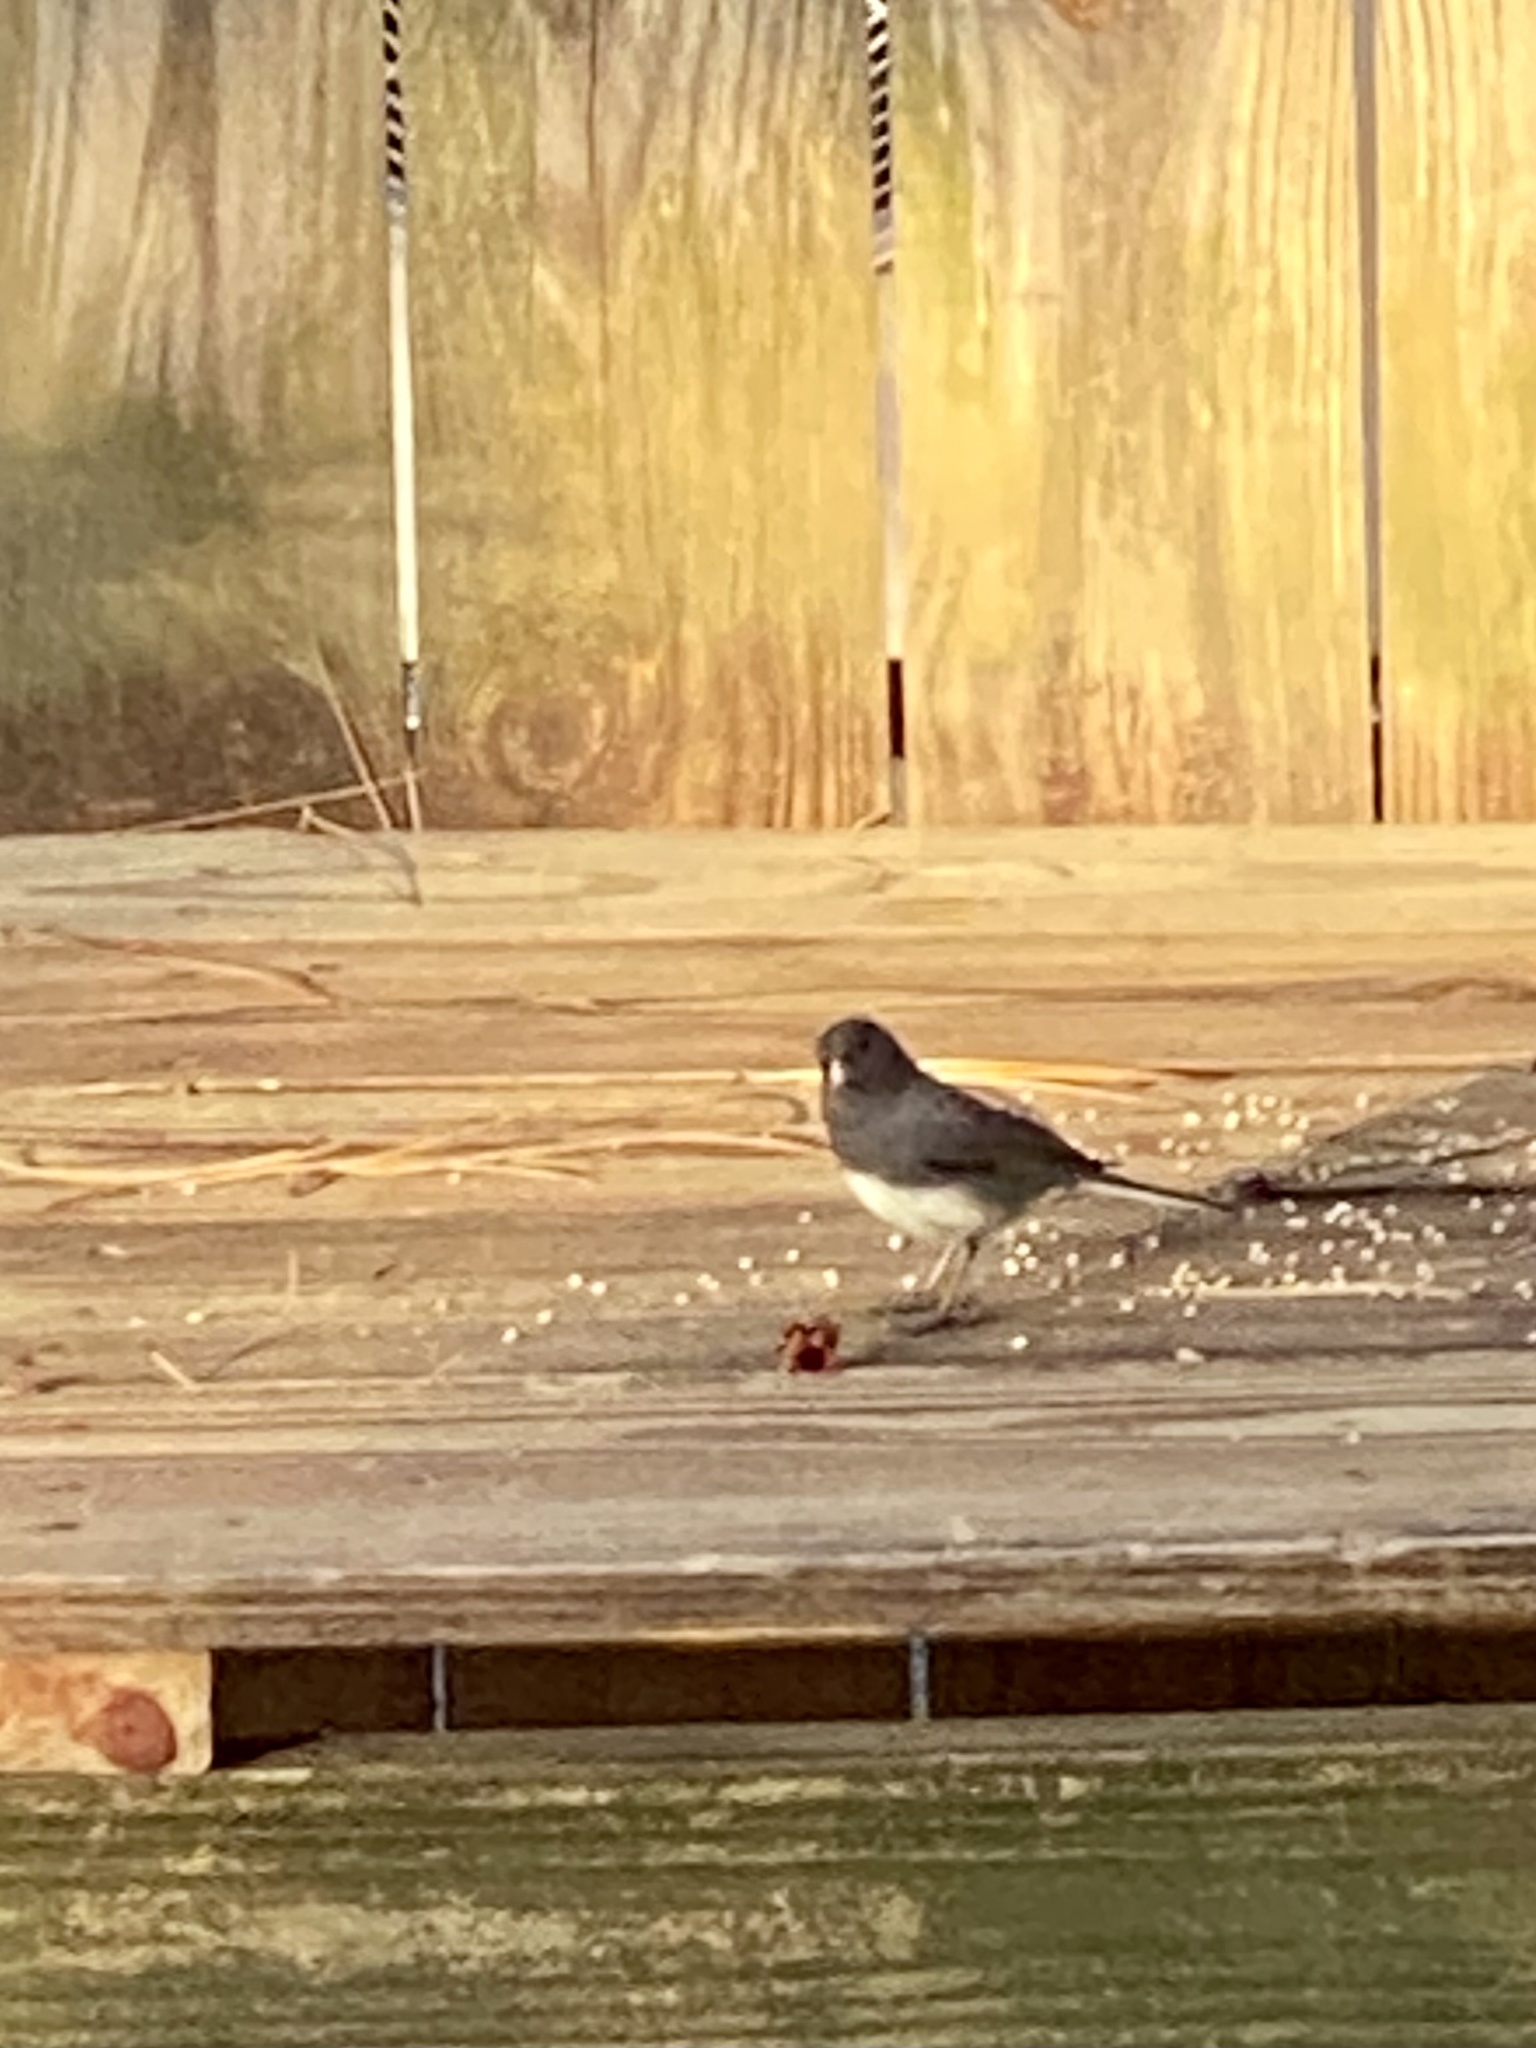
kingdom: Animalia
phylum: Chordata
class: Aves
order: Passeriformes
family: Passerellidae
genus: Junco
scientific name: Junco hyemalis
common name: Dark-eyed junco
